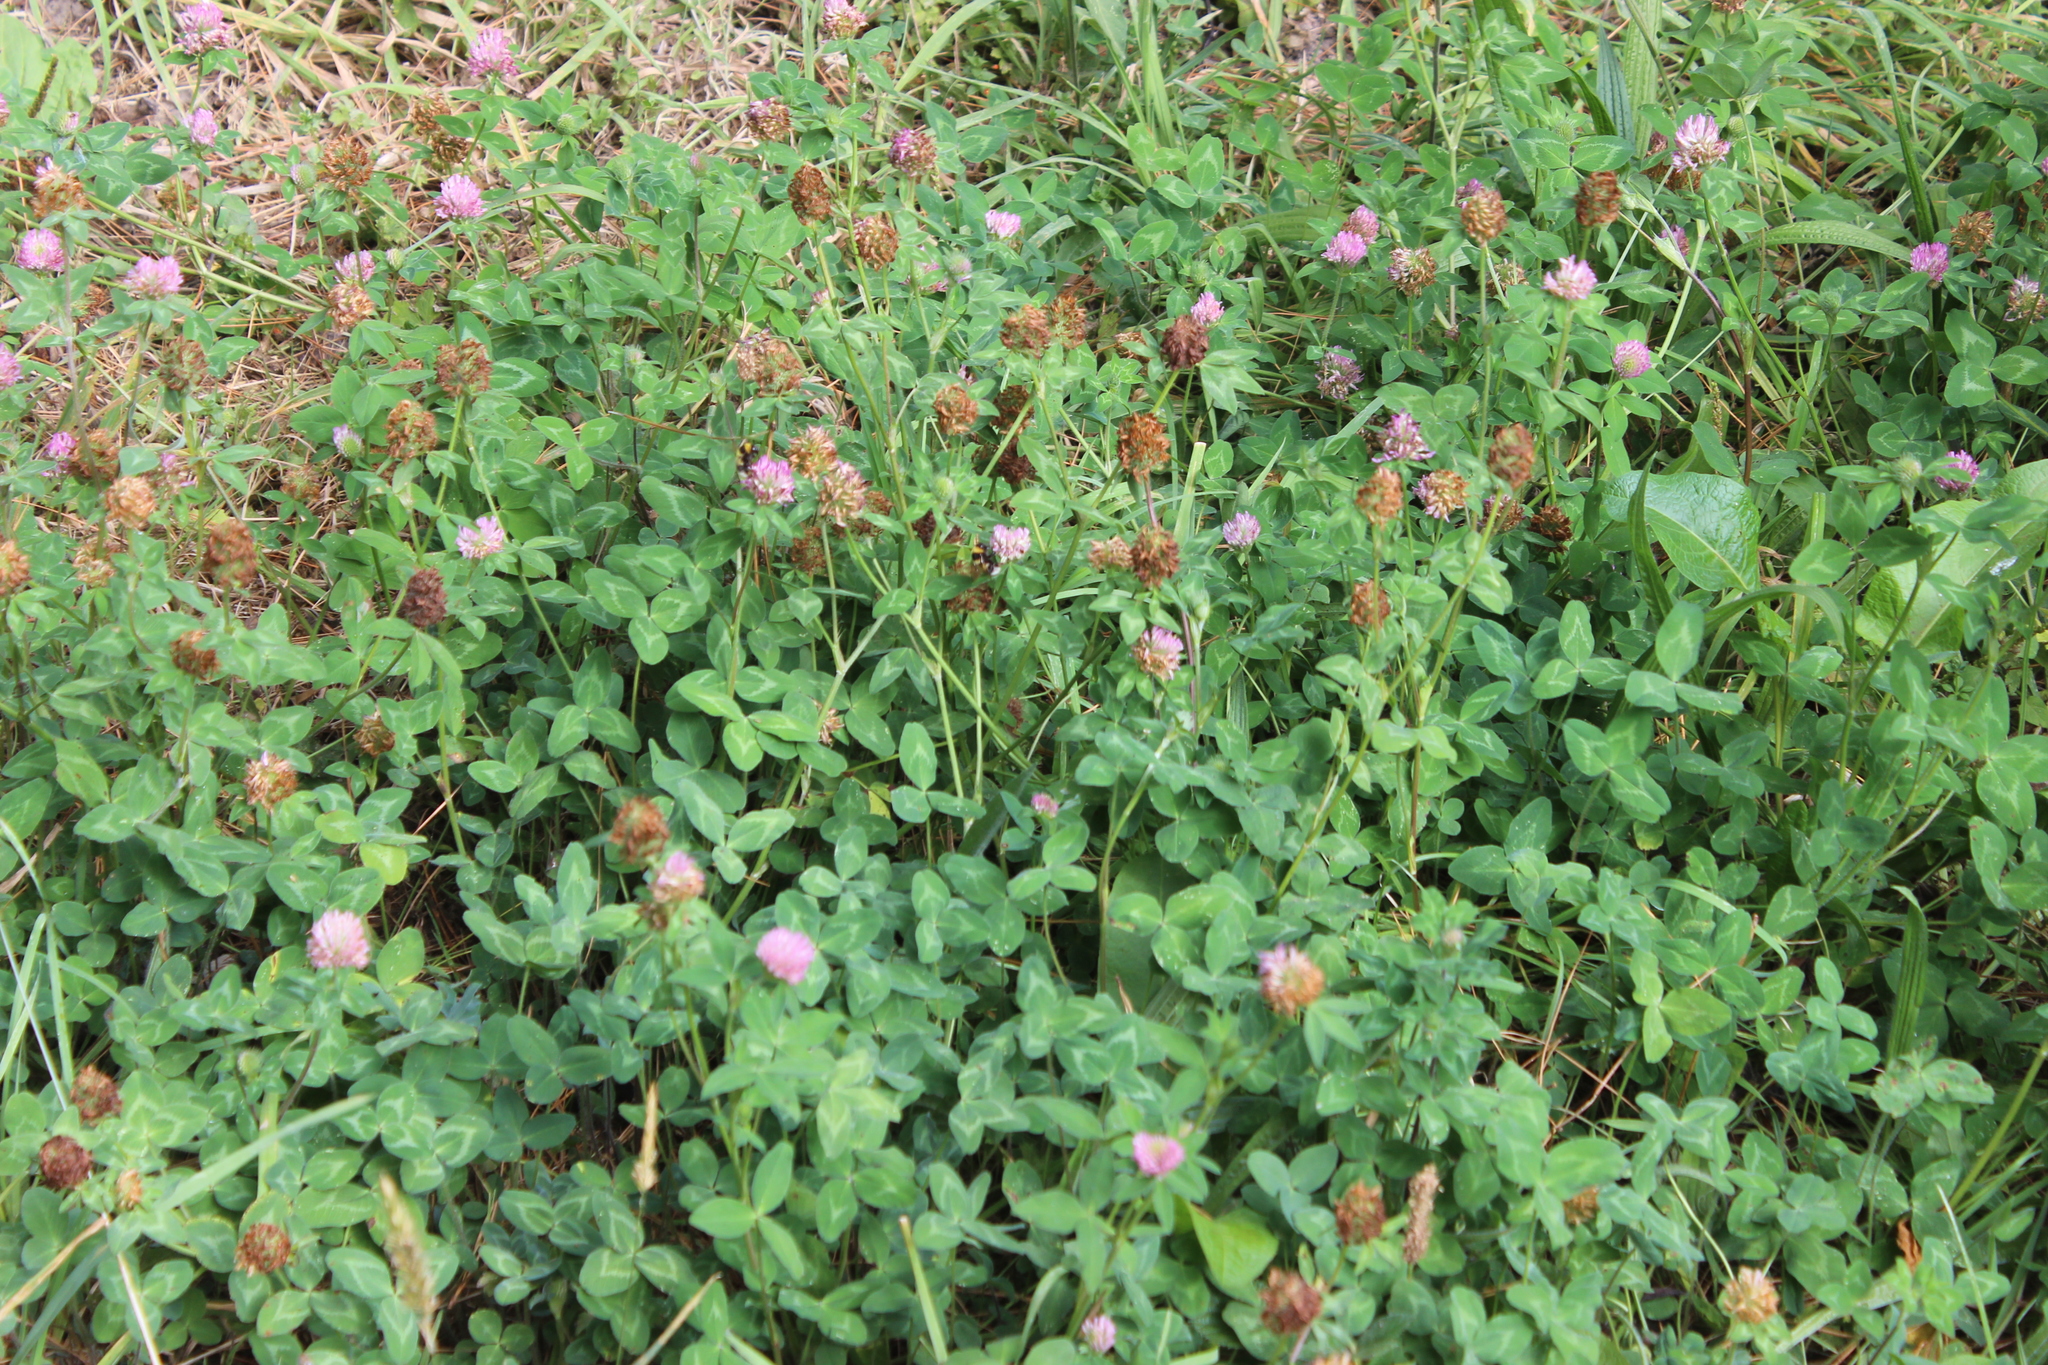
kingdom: Plantae
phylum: Tracheophyta
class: Magnoliopsida
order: Fabales
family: Fabaceae
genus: Trifolium
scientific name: Trifolium pratense
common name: Red clover
